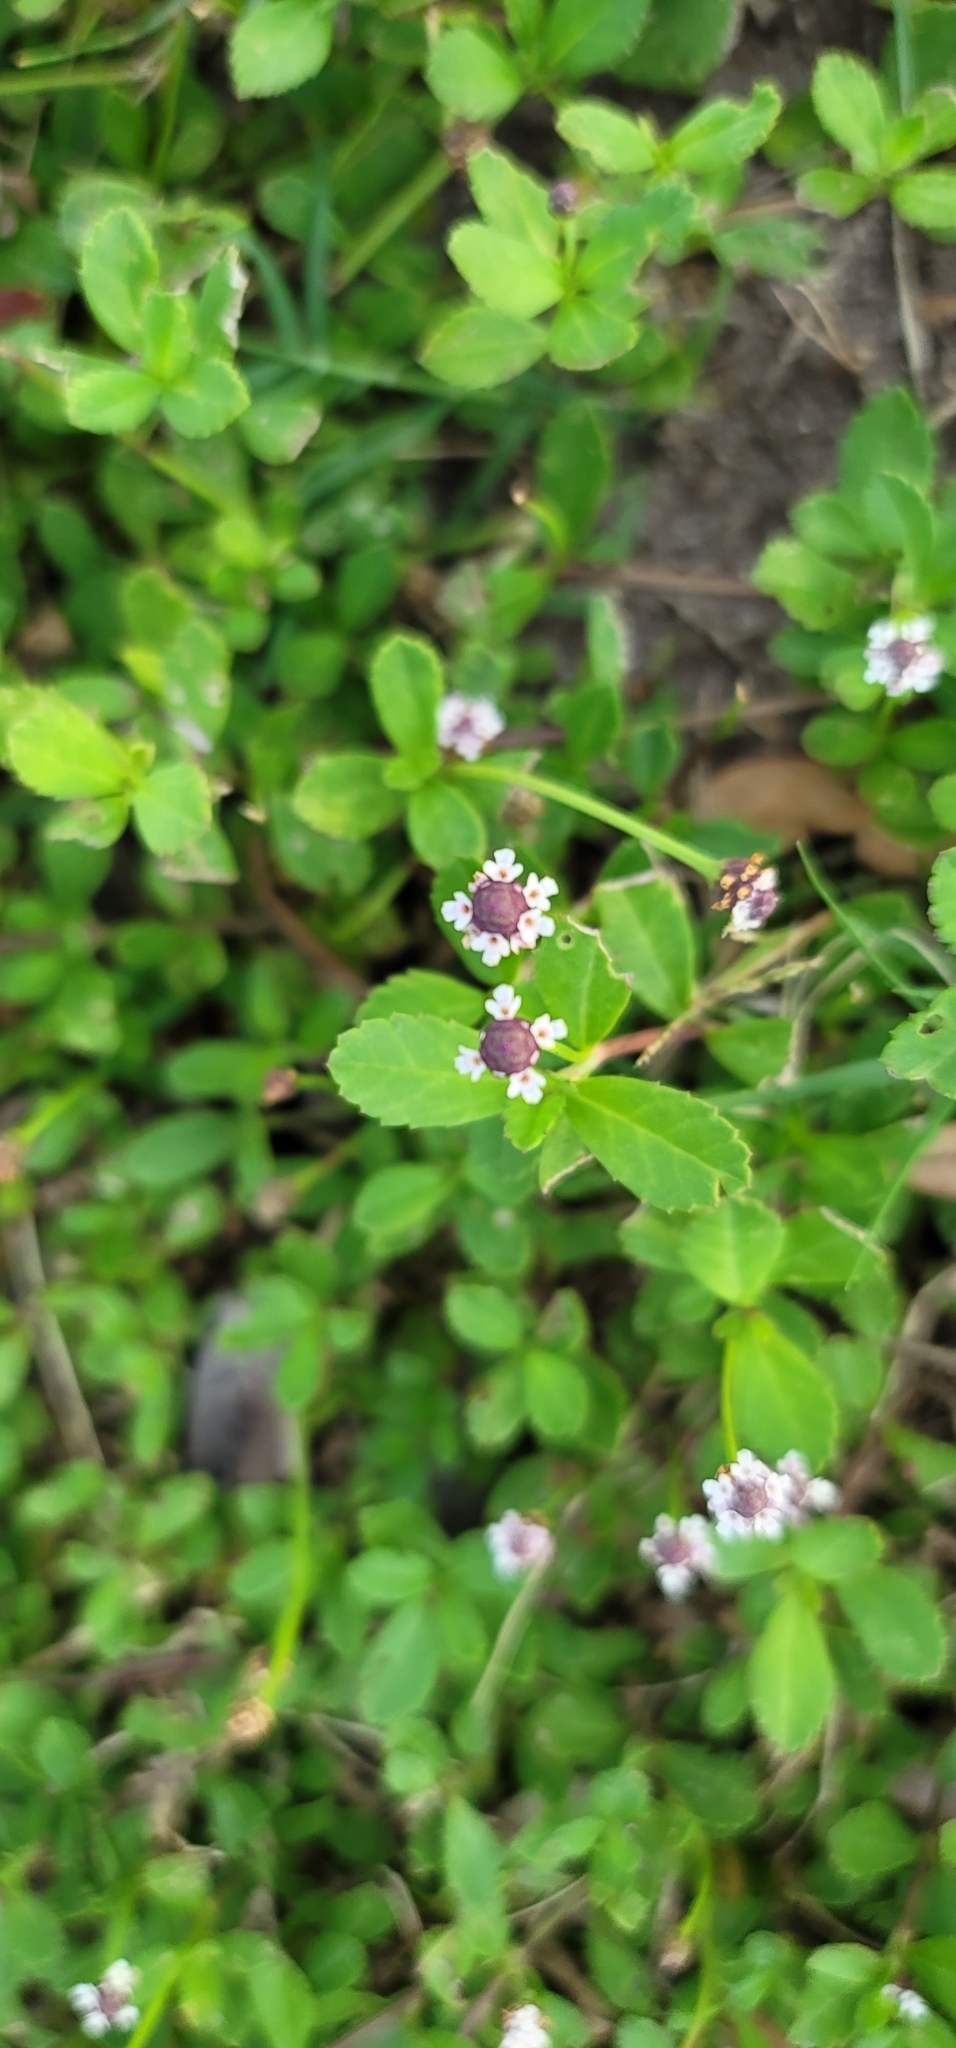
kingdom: Plantae
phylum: Tracheophyta
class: Magnoliopsida
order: Lamiales
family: Verbenaceae
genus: Phyla
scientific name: Phyla nodiflora
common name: Frogfruit
